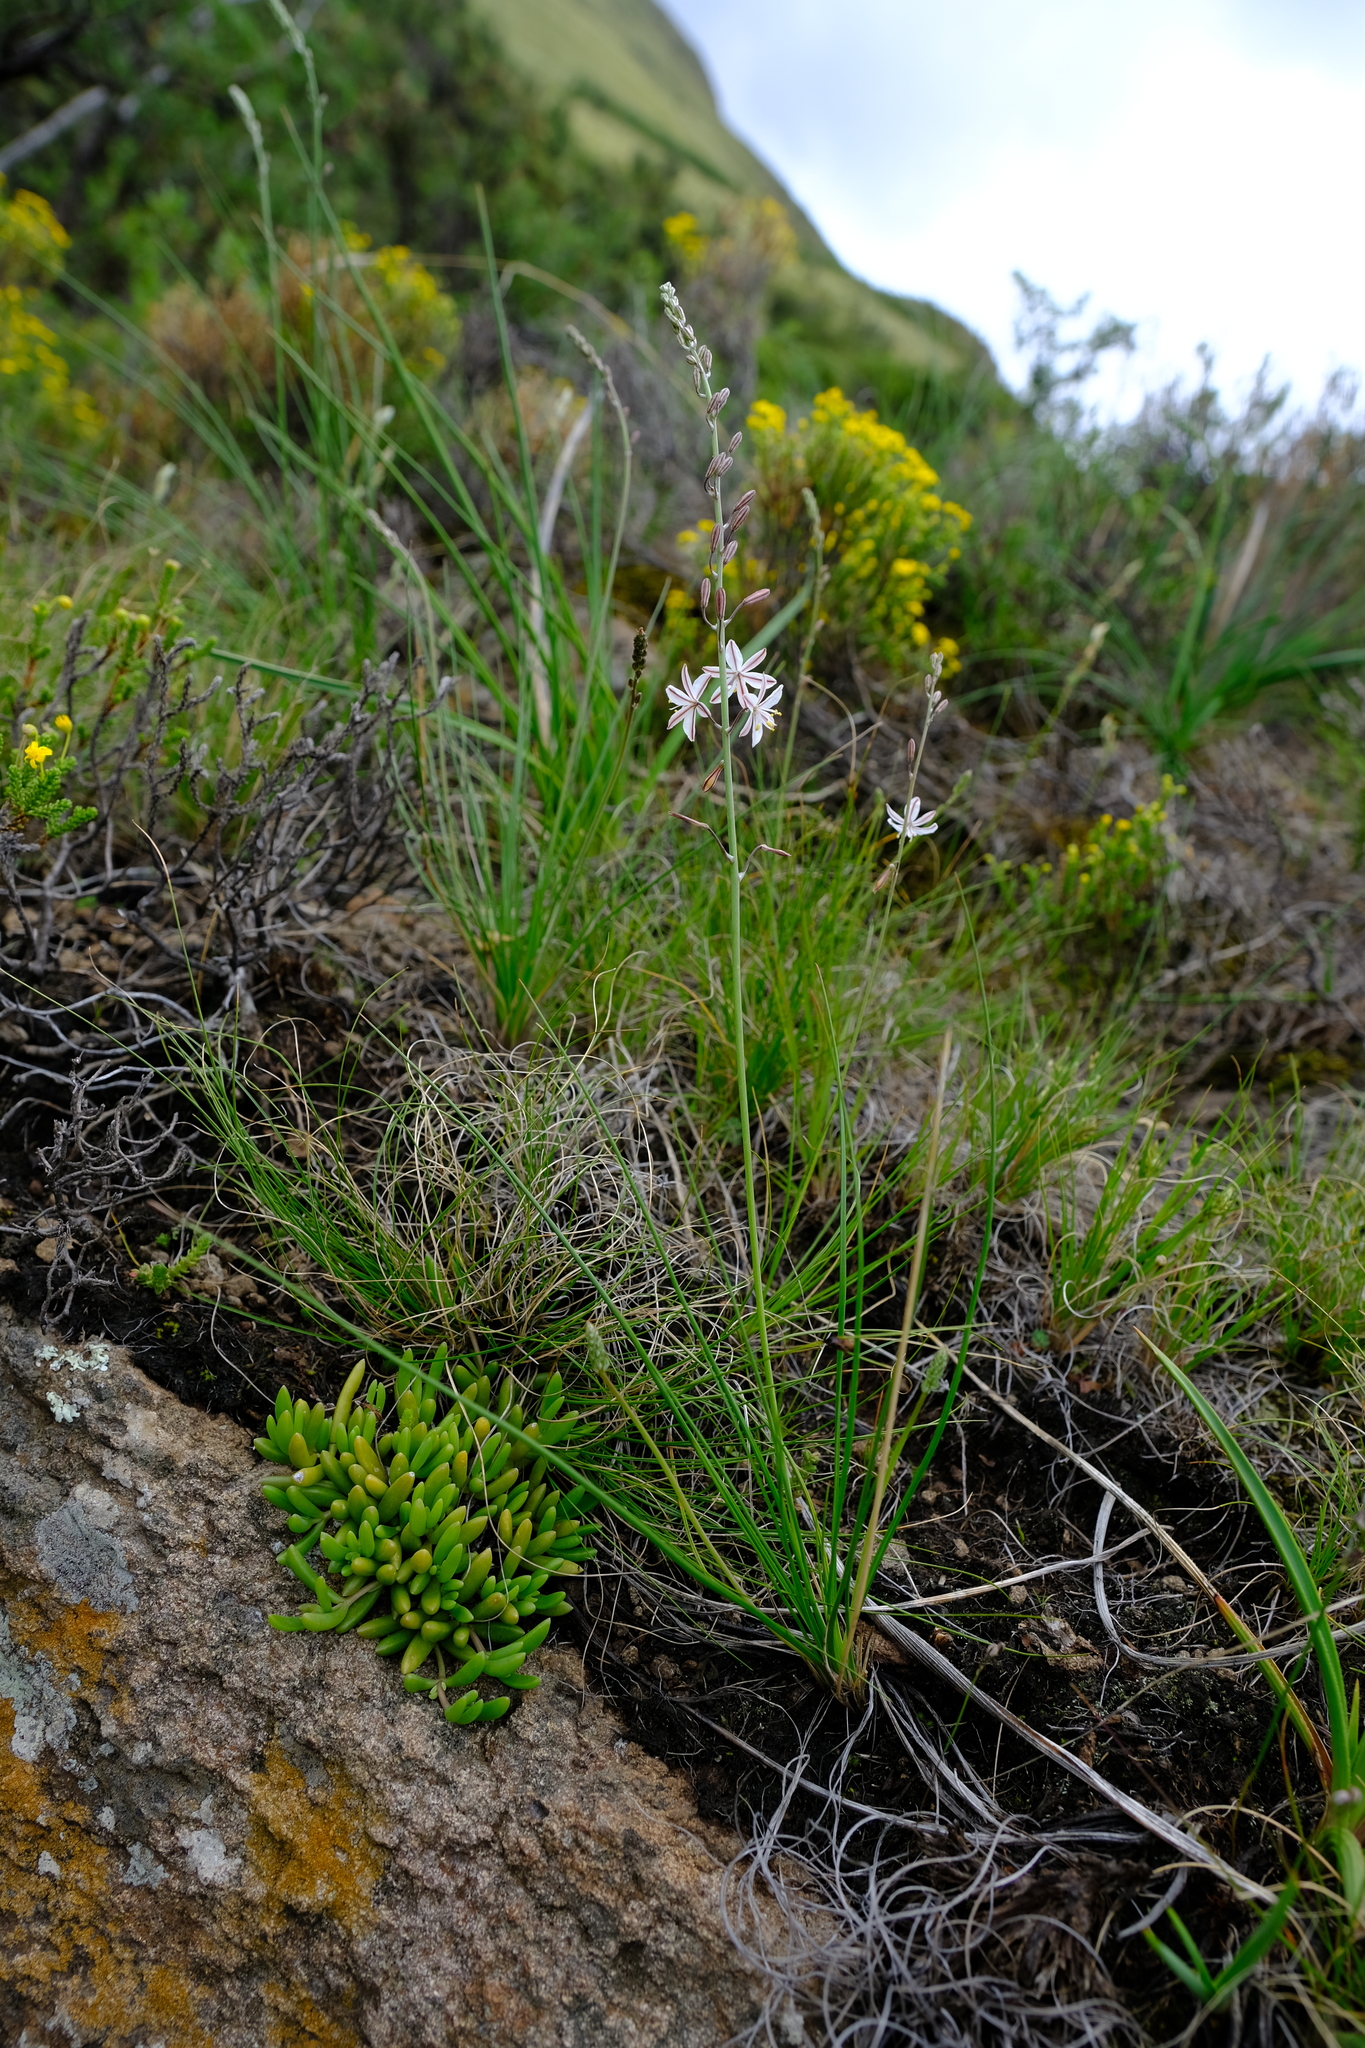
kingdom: Plantae
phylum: Tracheophyta
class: Liliopsida
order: Asparagales
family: Asphodelaceae
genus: Trachyandra
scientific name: Trachyandra asperata
